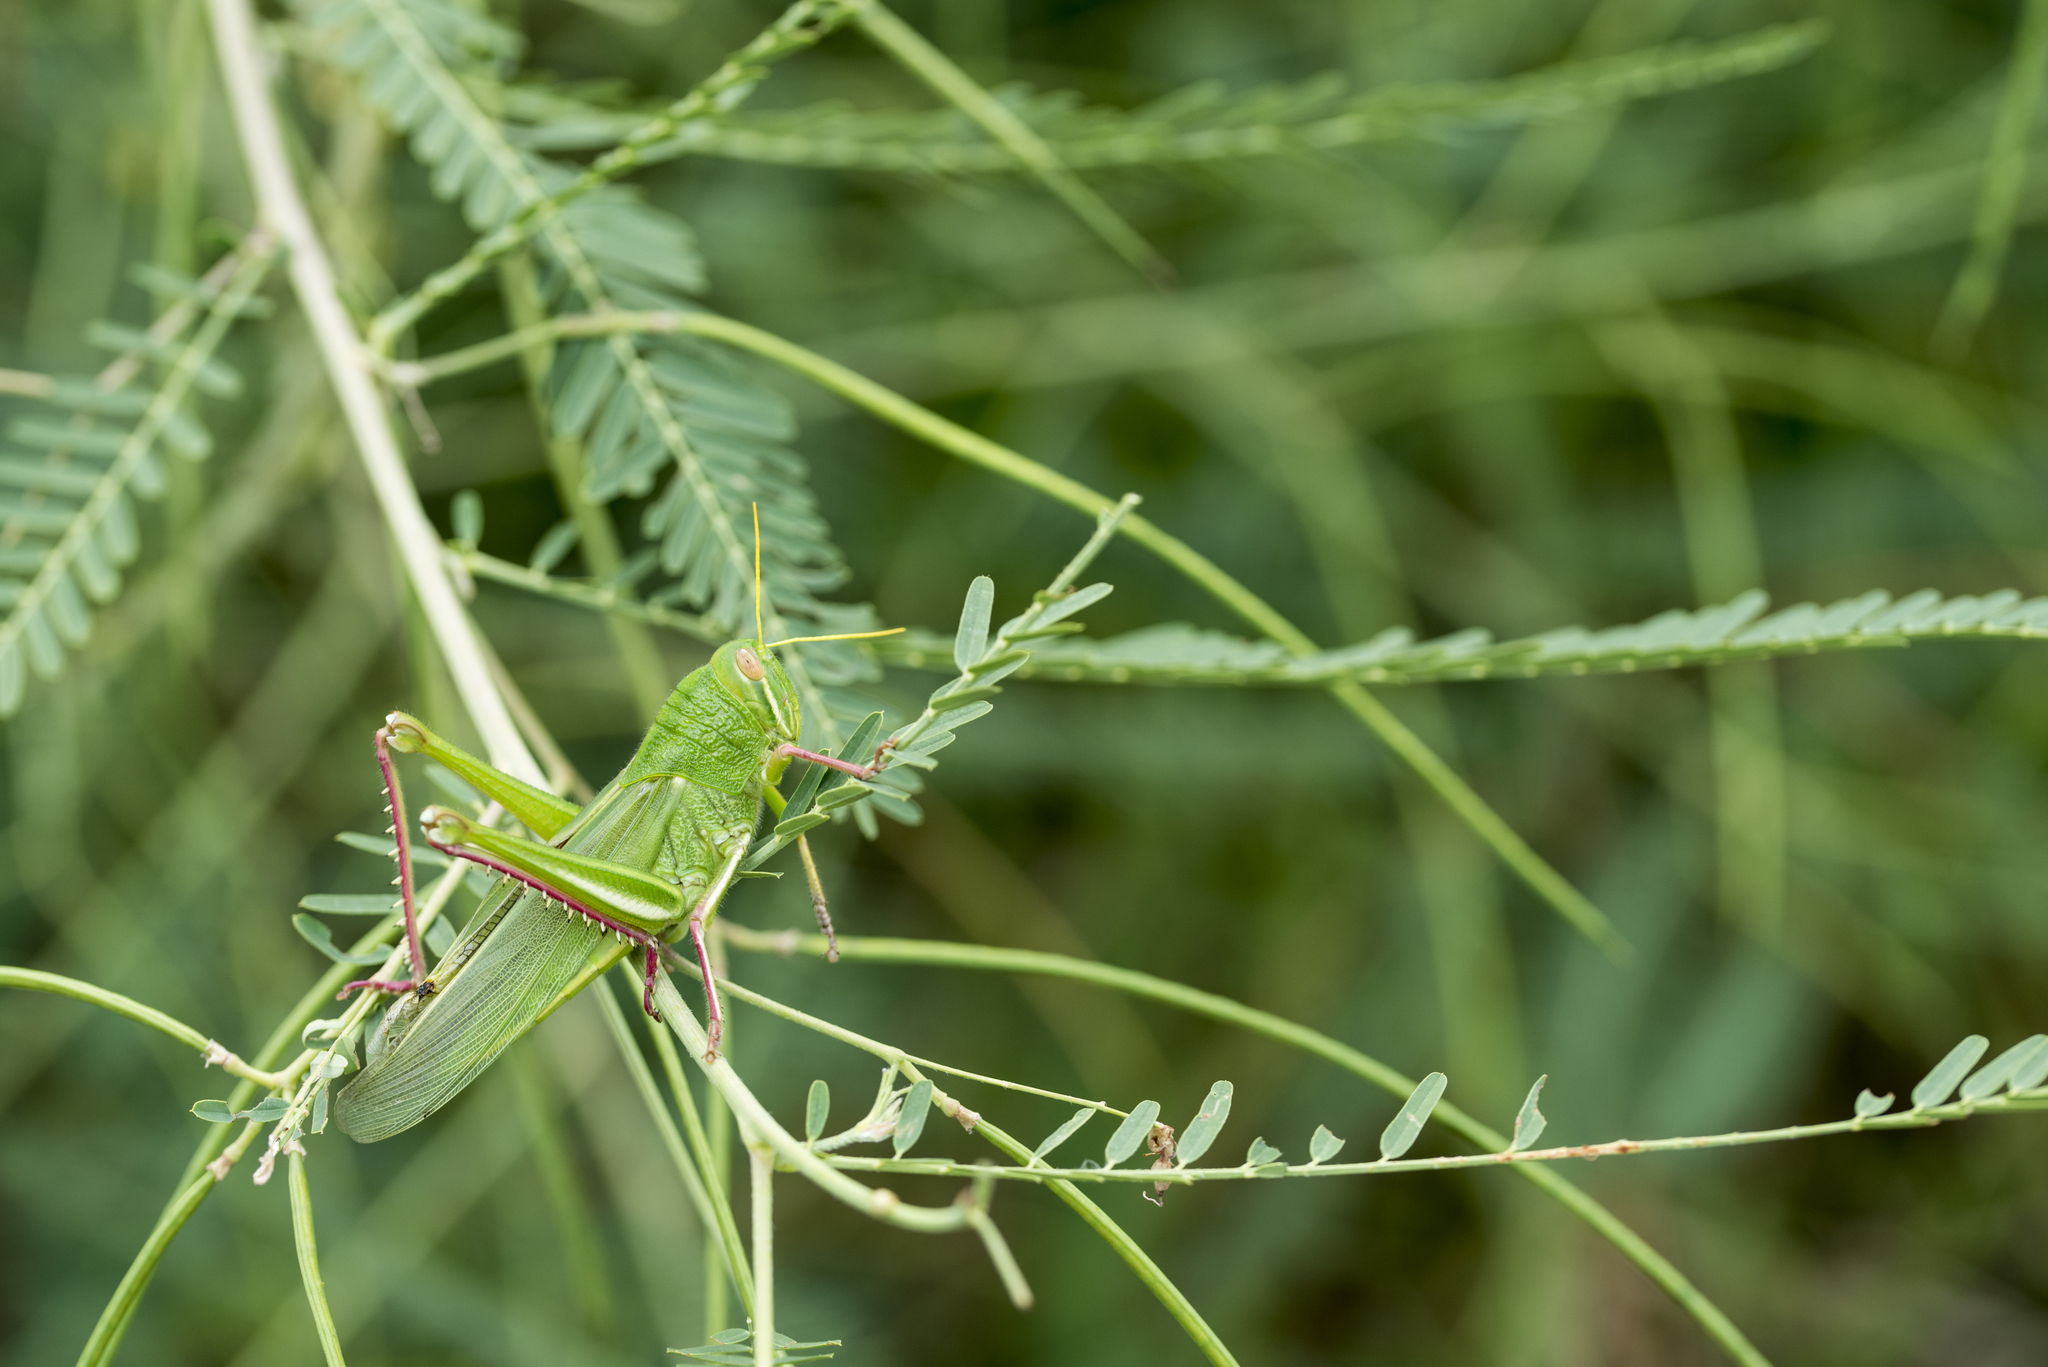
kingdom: Animalia
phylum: Arthropoda
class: Insecta
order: Orthoptera
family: Acrididae
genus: Chondracris
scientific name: Chondracris rosea
